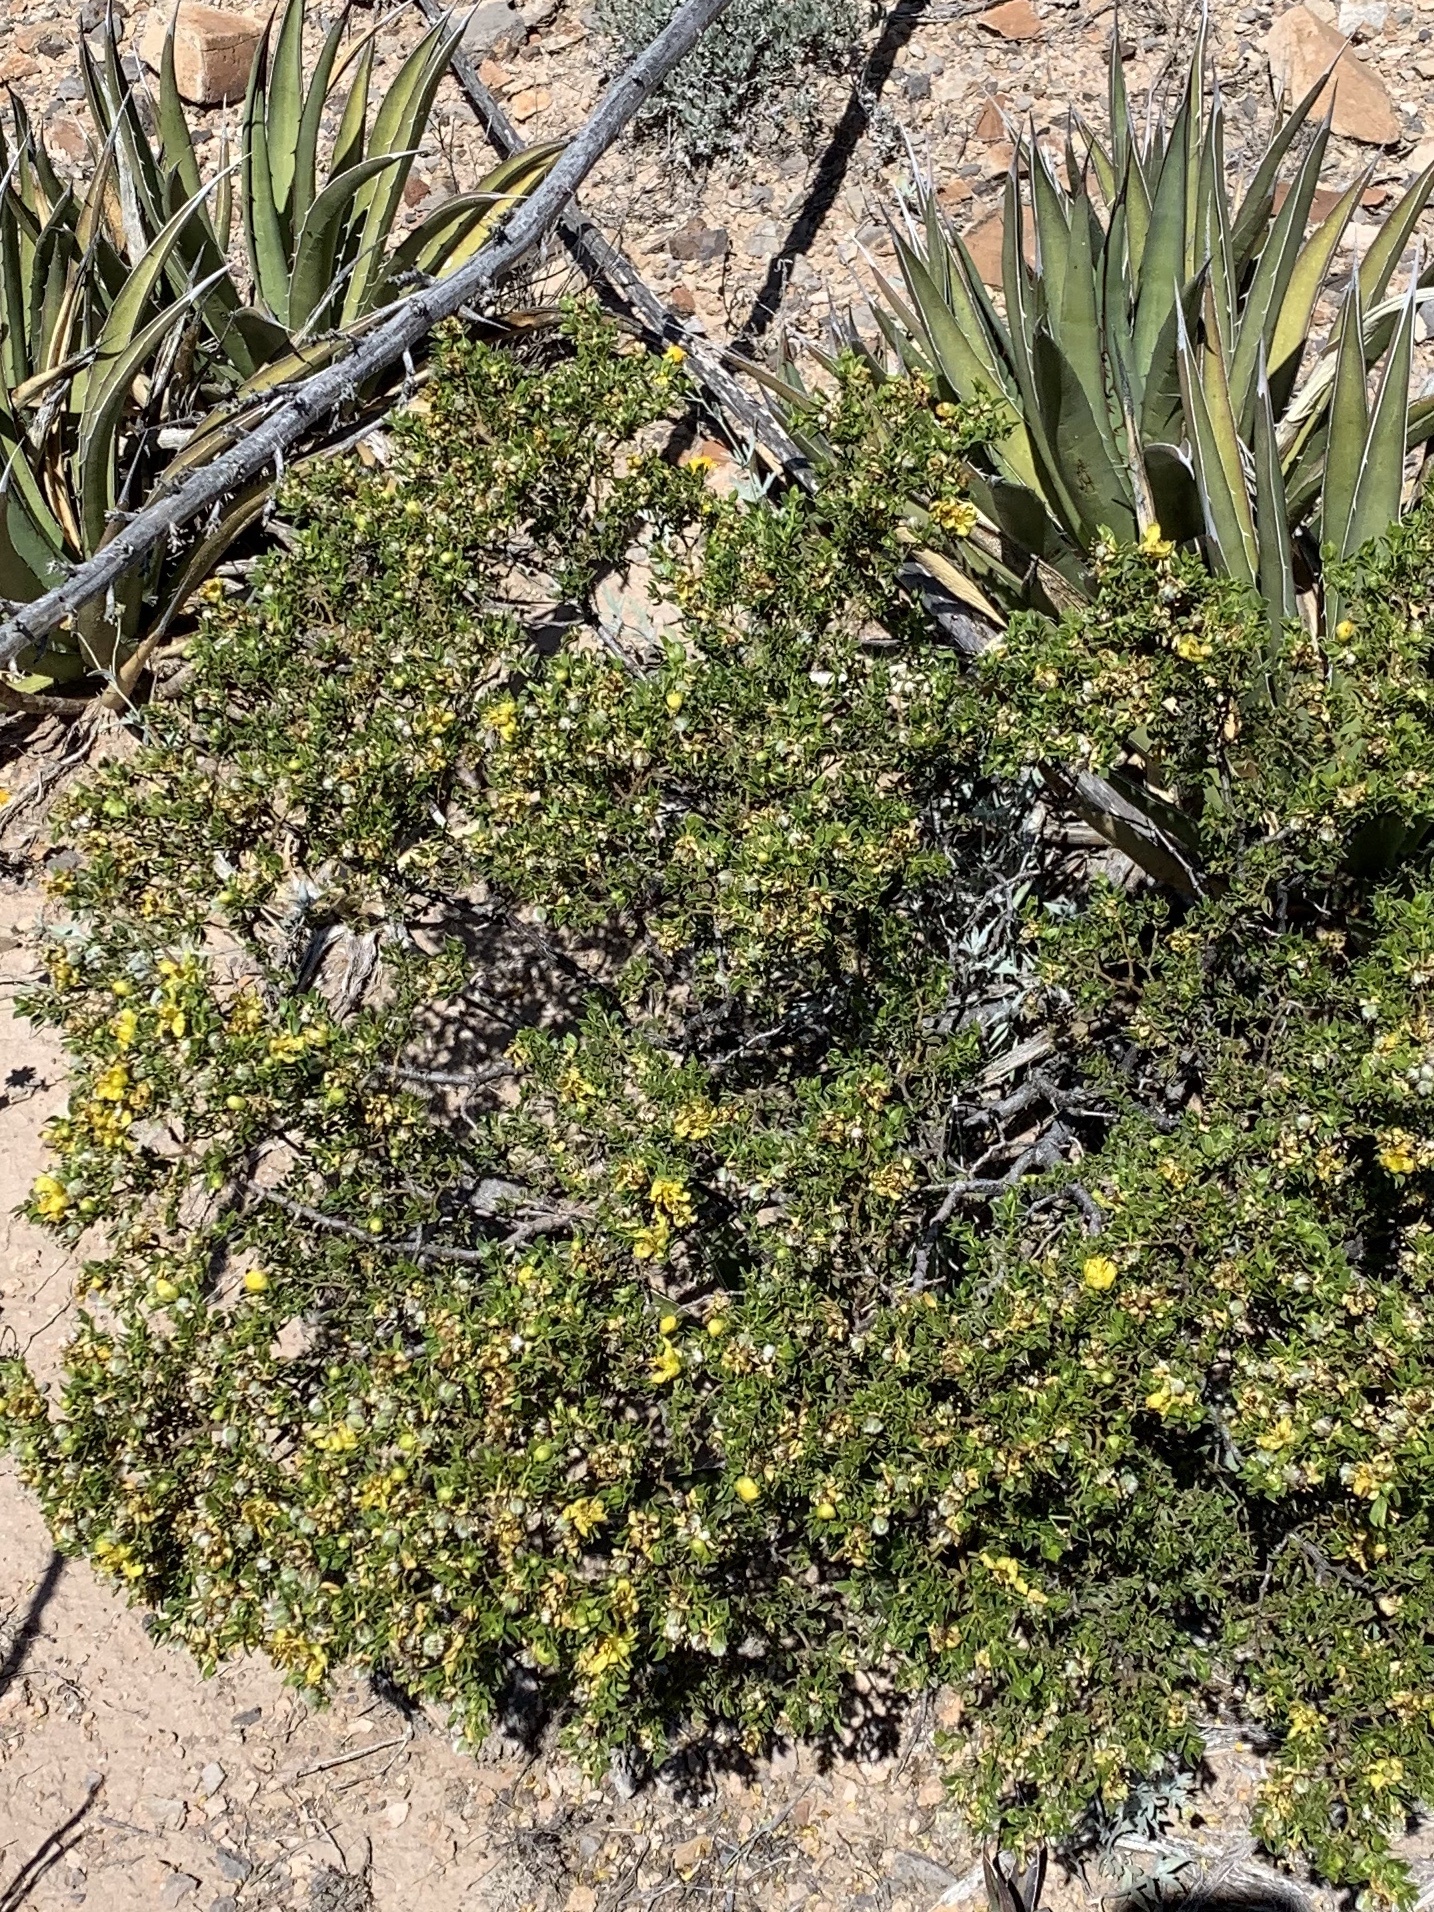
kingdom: Plantae
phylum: Tracheophyta
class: Magnoliopsida
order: Zygophyllales
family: Zygophyllaceae
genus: Larrea
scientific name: Larrea tridentata
